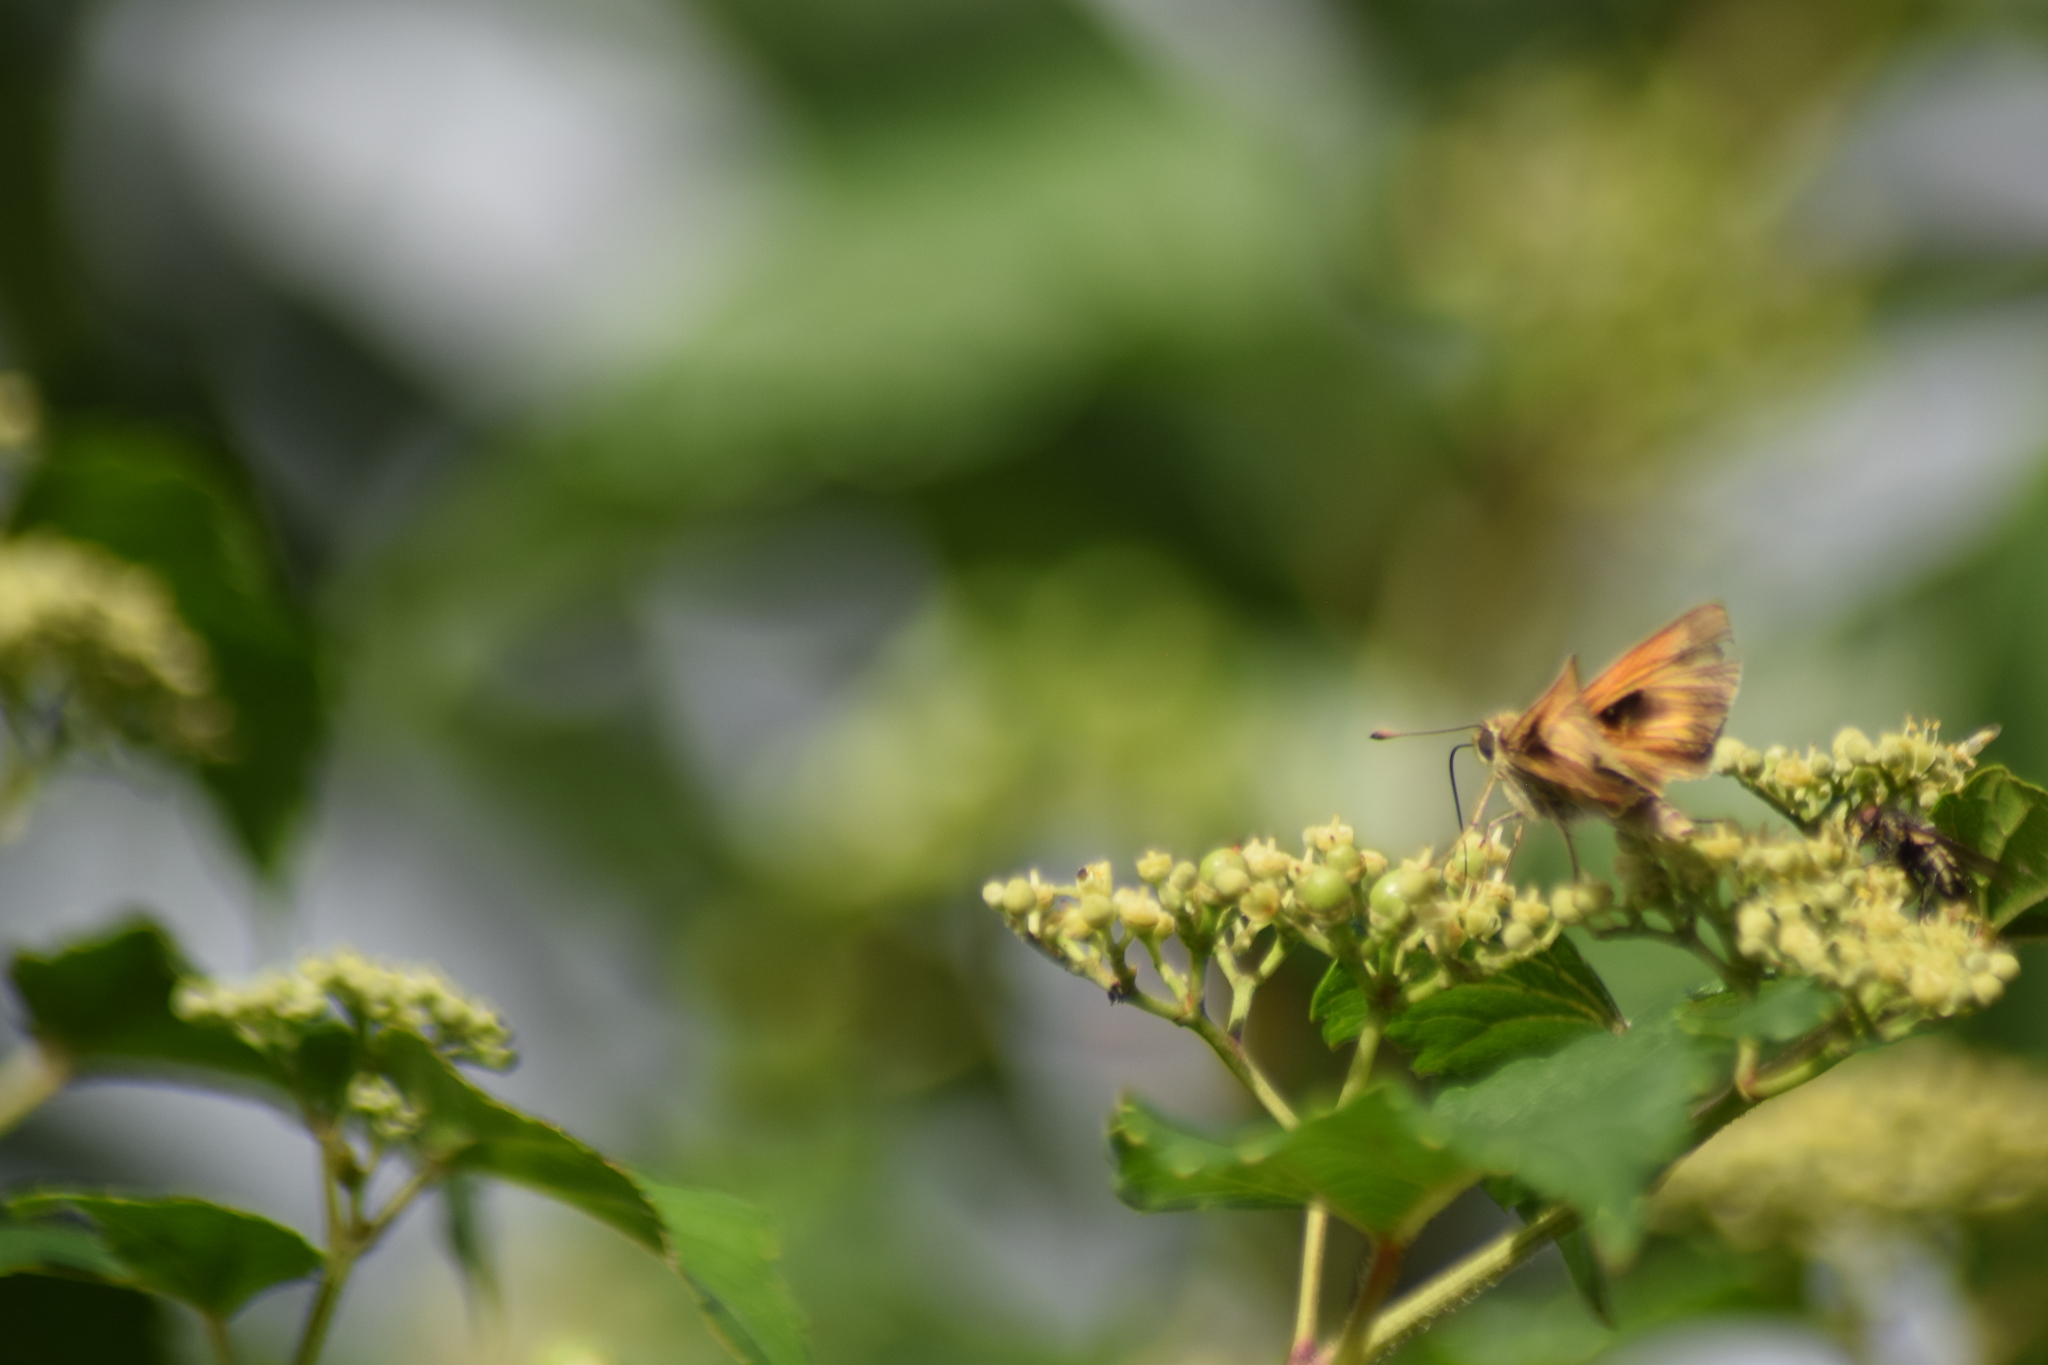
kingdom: Animalia
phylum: Arthropoda
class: Insecta
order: Lepidoptera
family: Hesperiidae
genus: Atalopedes
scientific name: Atalopedes
